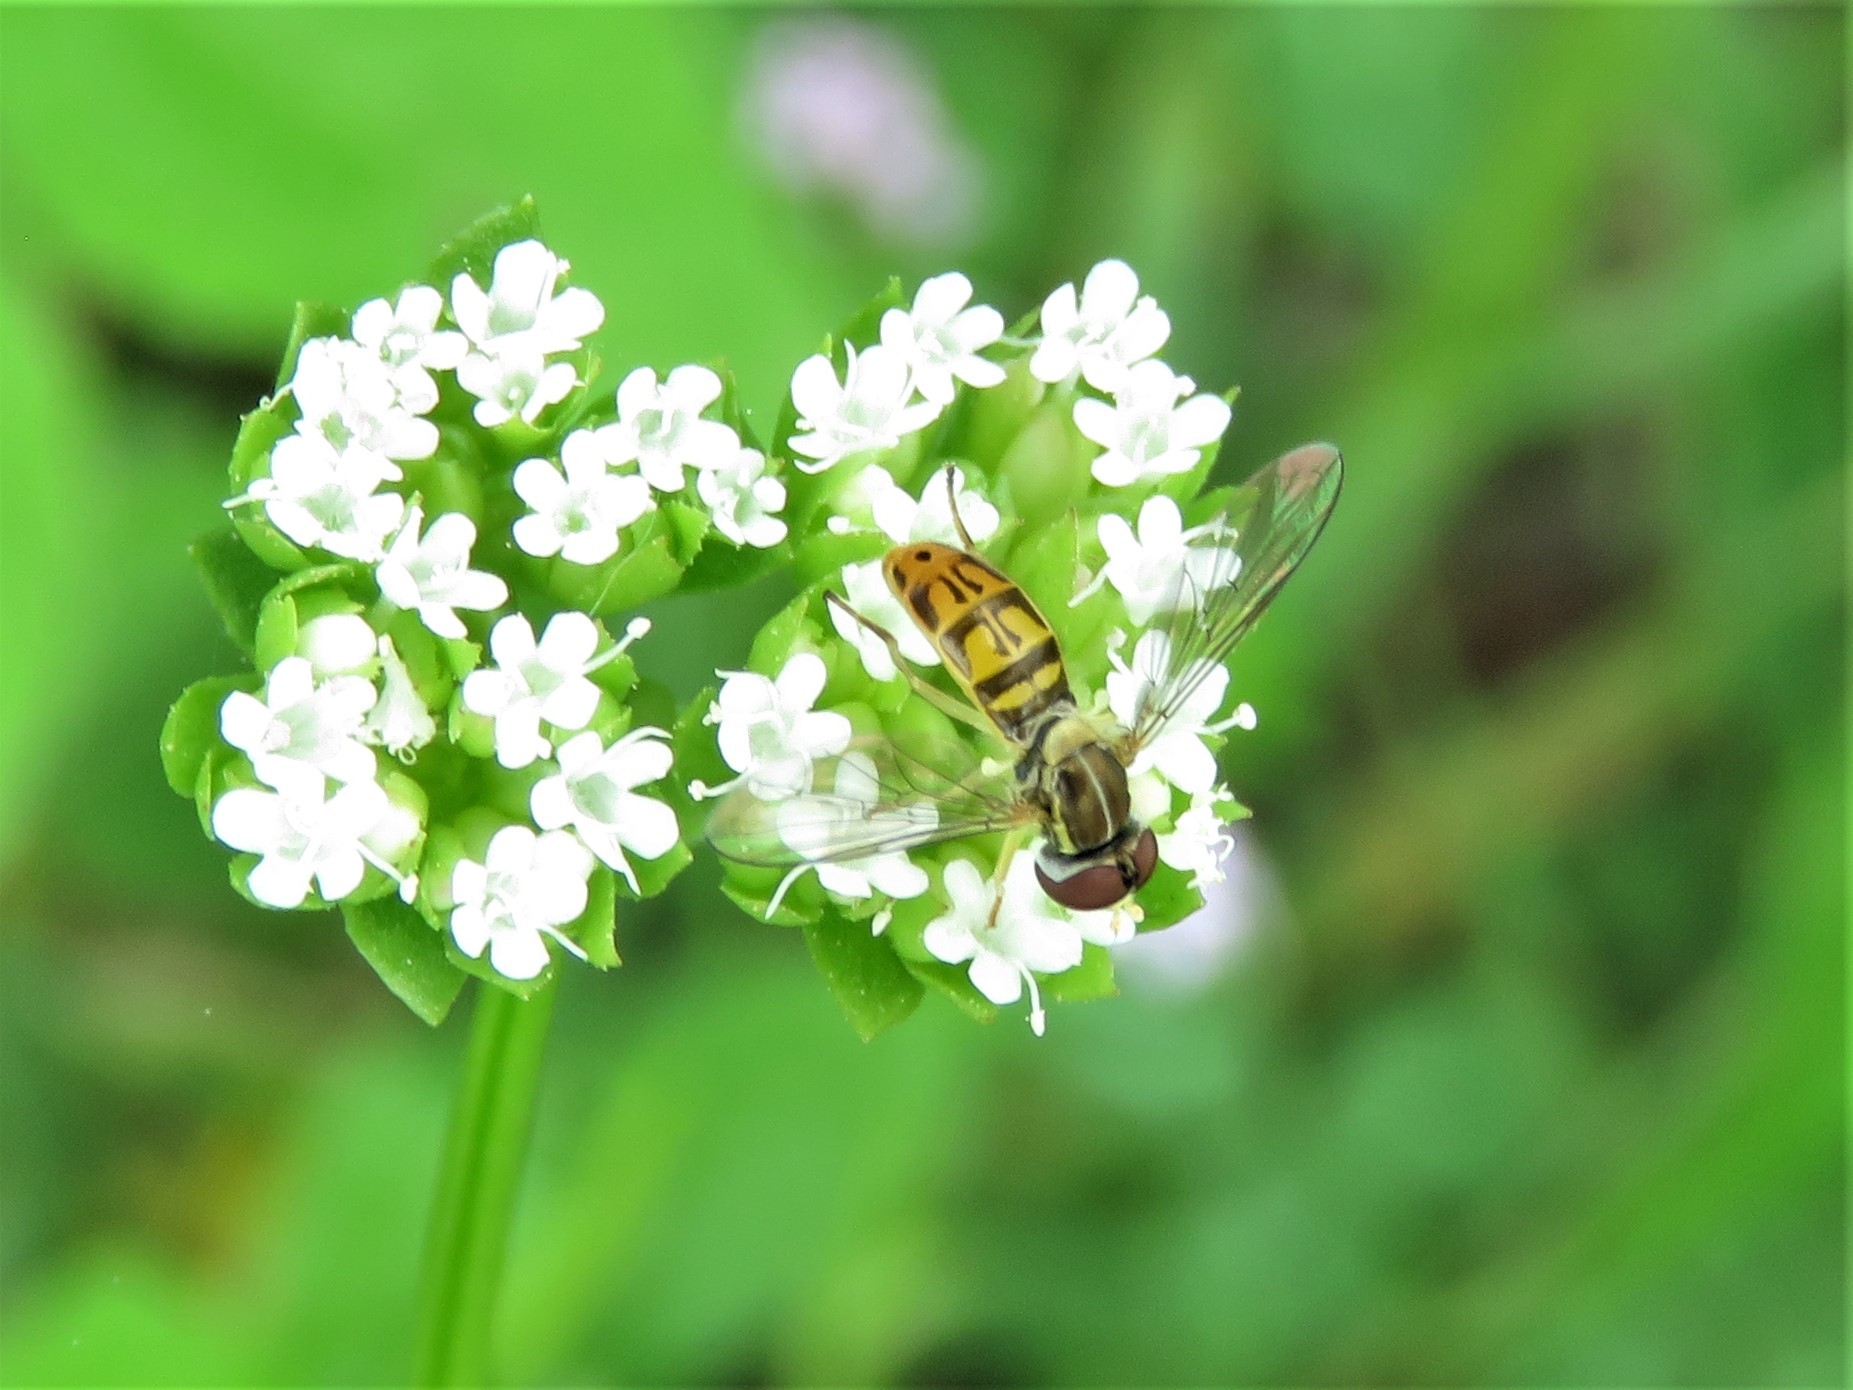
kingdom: Animalia
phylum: Arthropoda
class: Insecta
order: Diptera
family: Syrphidae
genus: Toxomerus
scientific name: Toxomerus marginatus
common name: Syrphid fly
